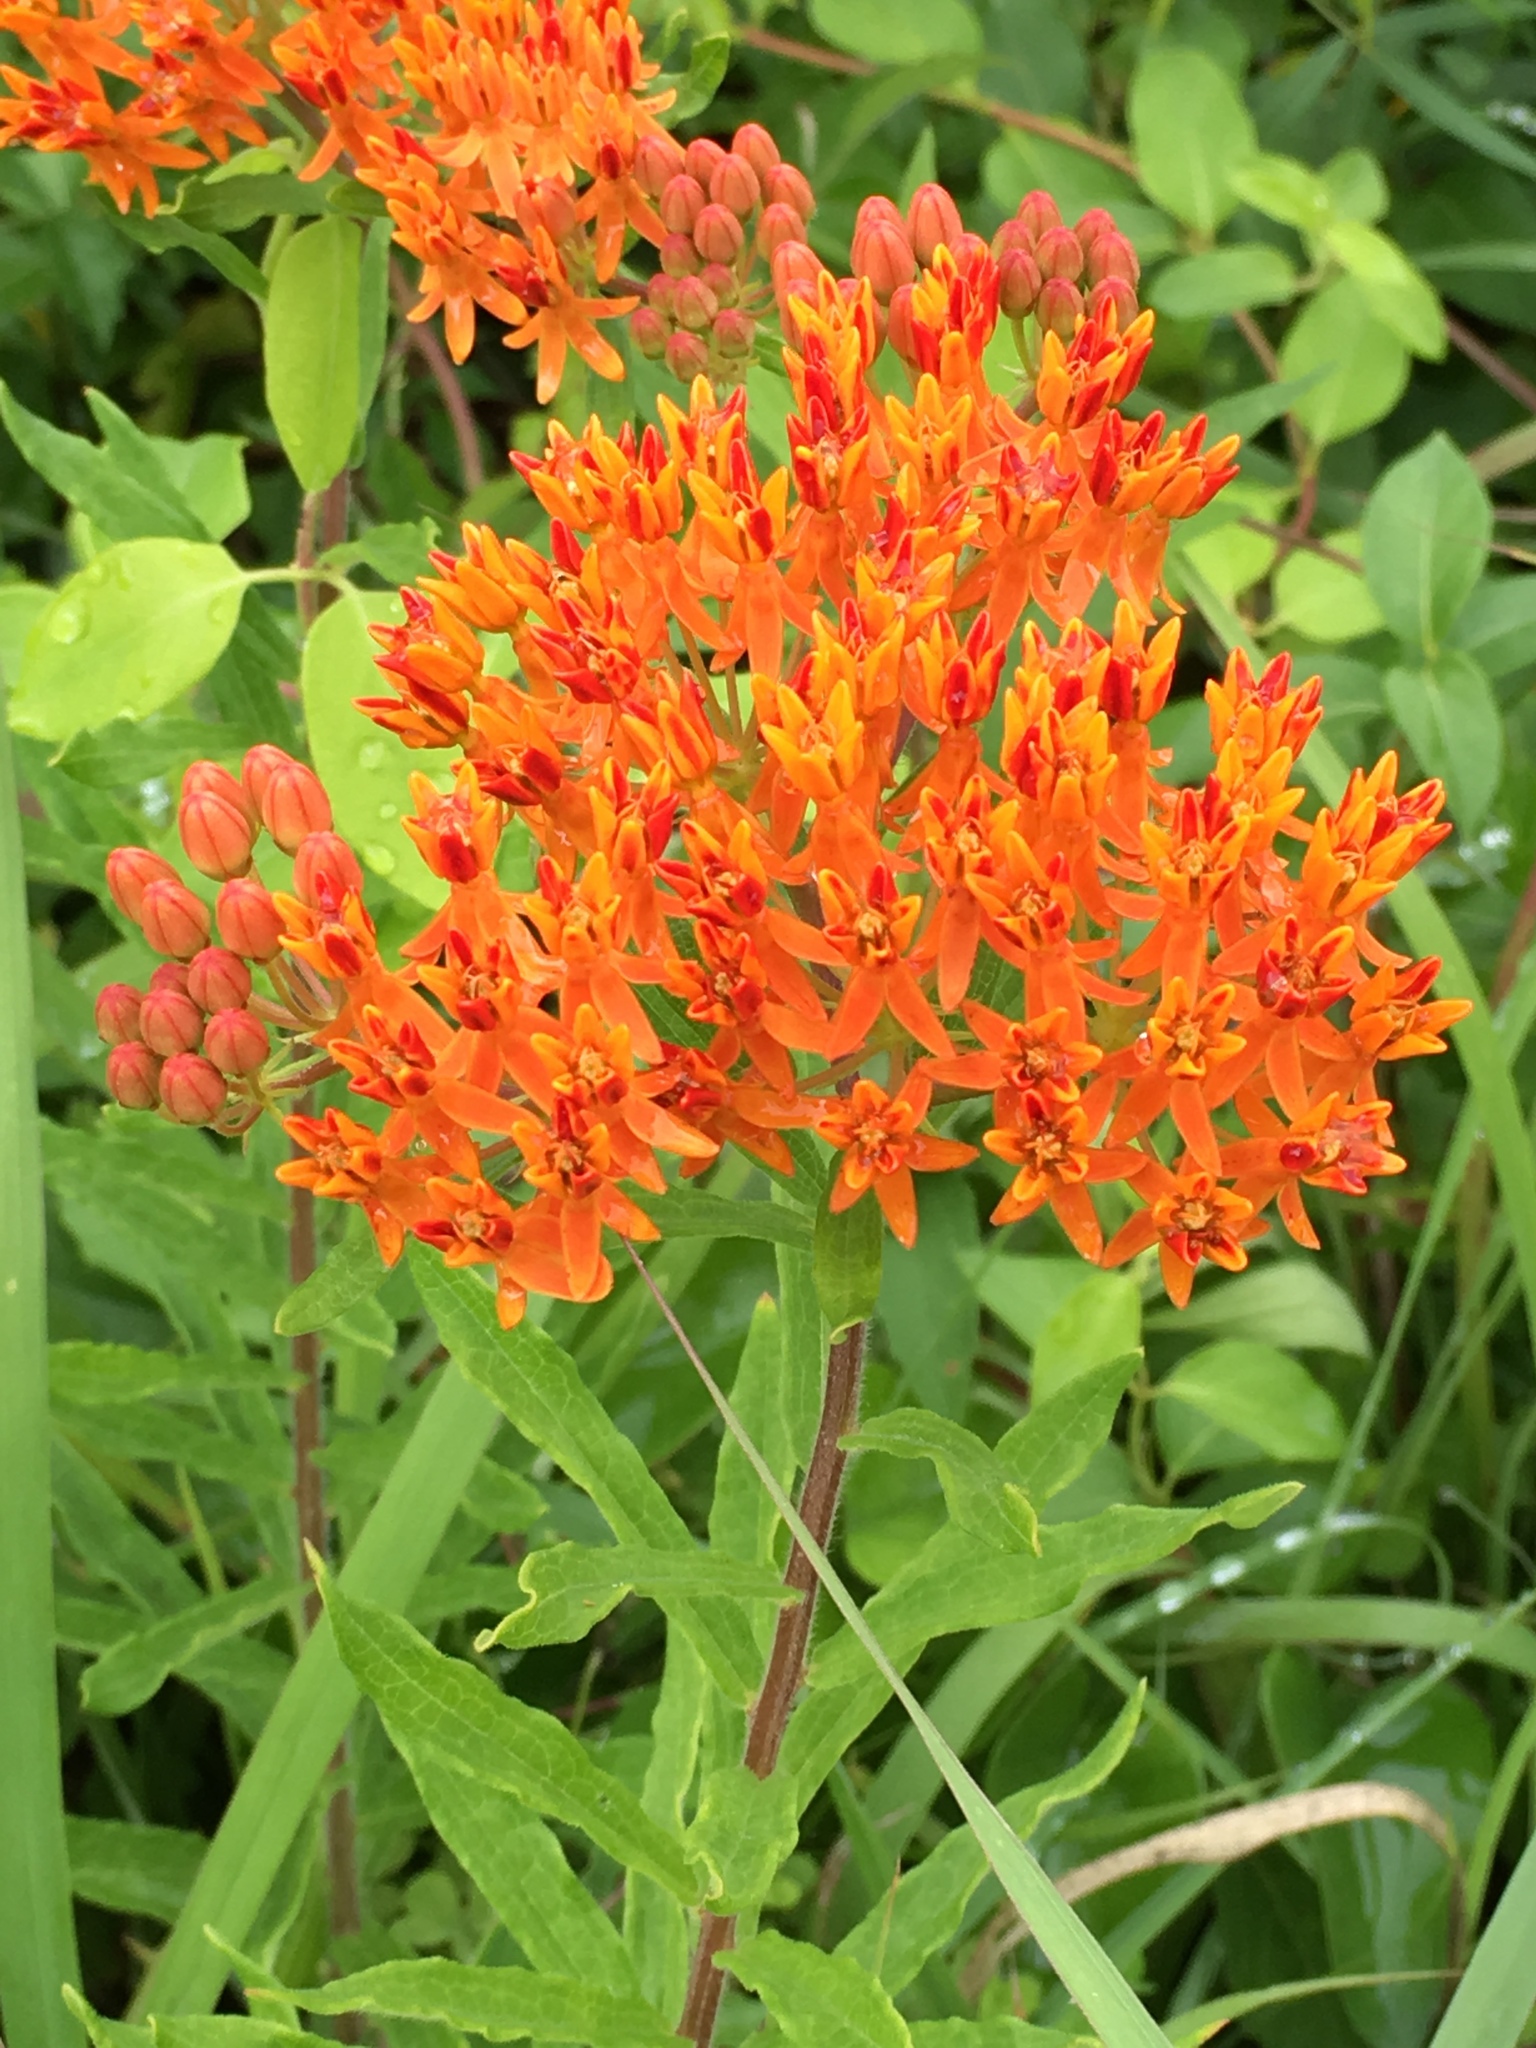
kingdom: Plantae
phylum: Tracheophyta
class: Magnoliopsida
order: Gentianales
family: Apocynaceae
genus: Asclepias
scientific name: Asclepias tuberosa
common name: Butterfly milkweed
